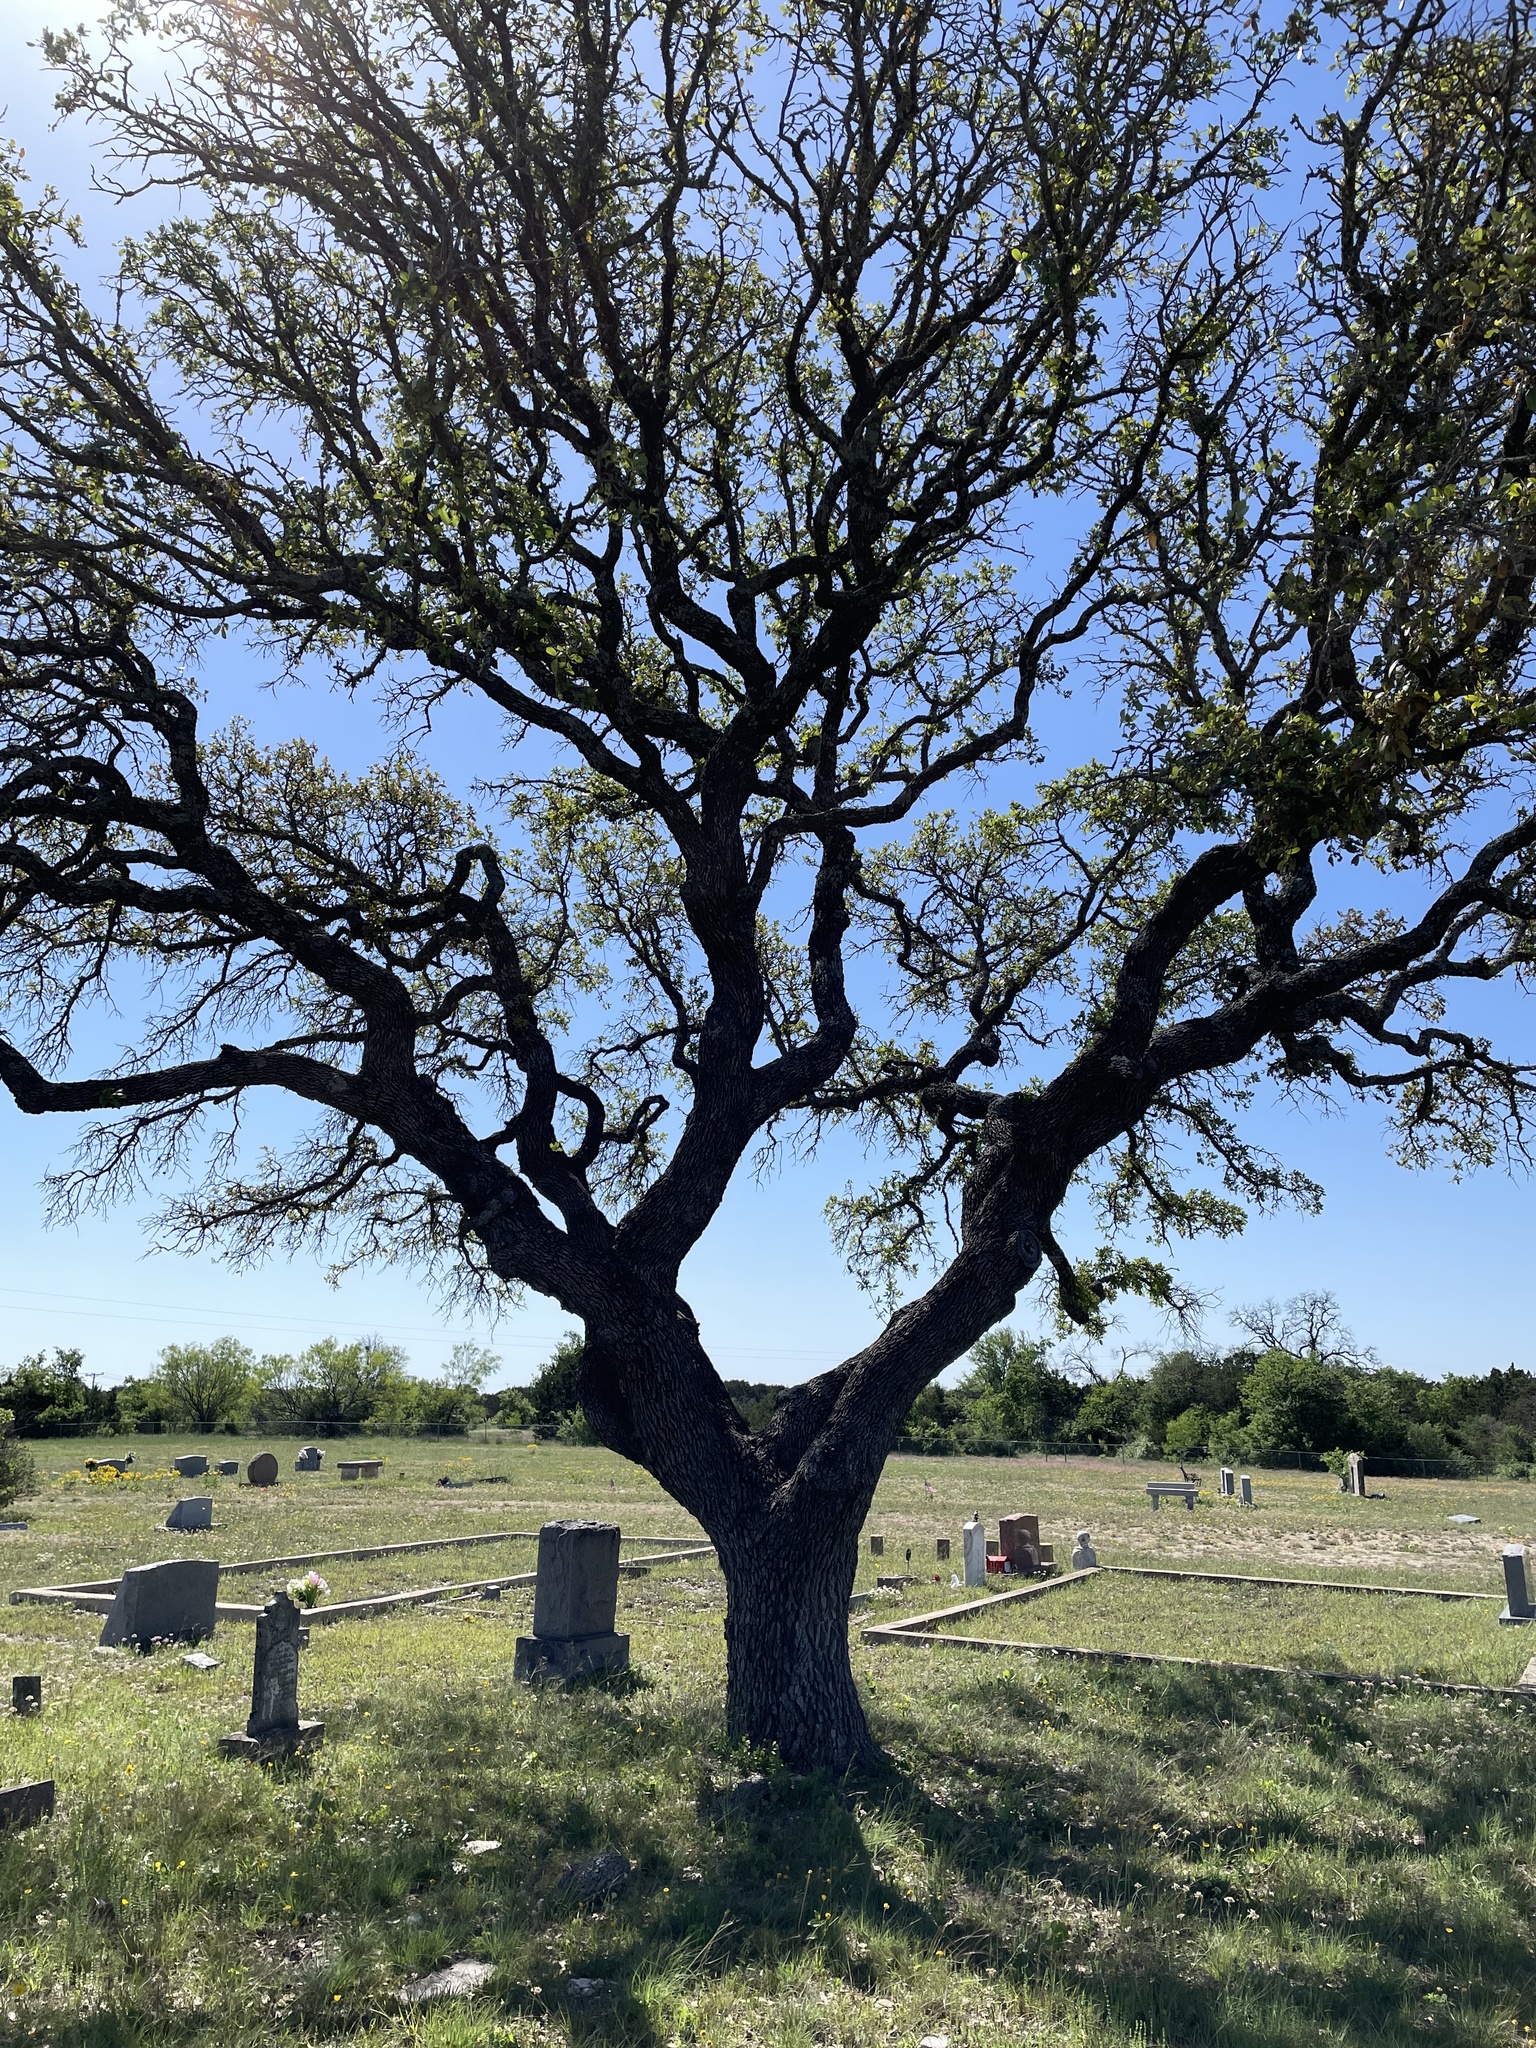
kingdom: Plantae
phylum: Tracheophyta
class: Magnoliopsida
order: Fagales
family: Fagaceae
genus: Quercus
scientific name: Quercus fusiformis
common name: Texas live oak
